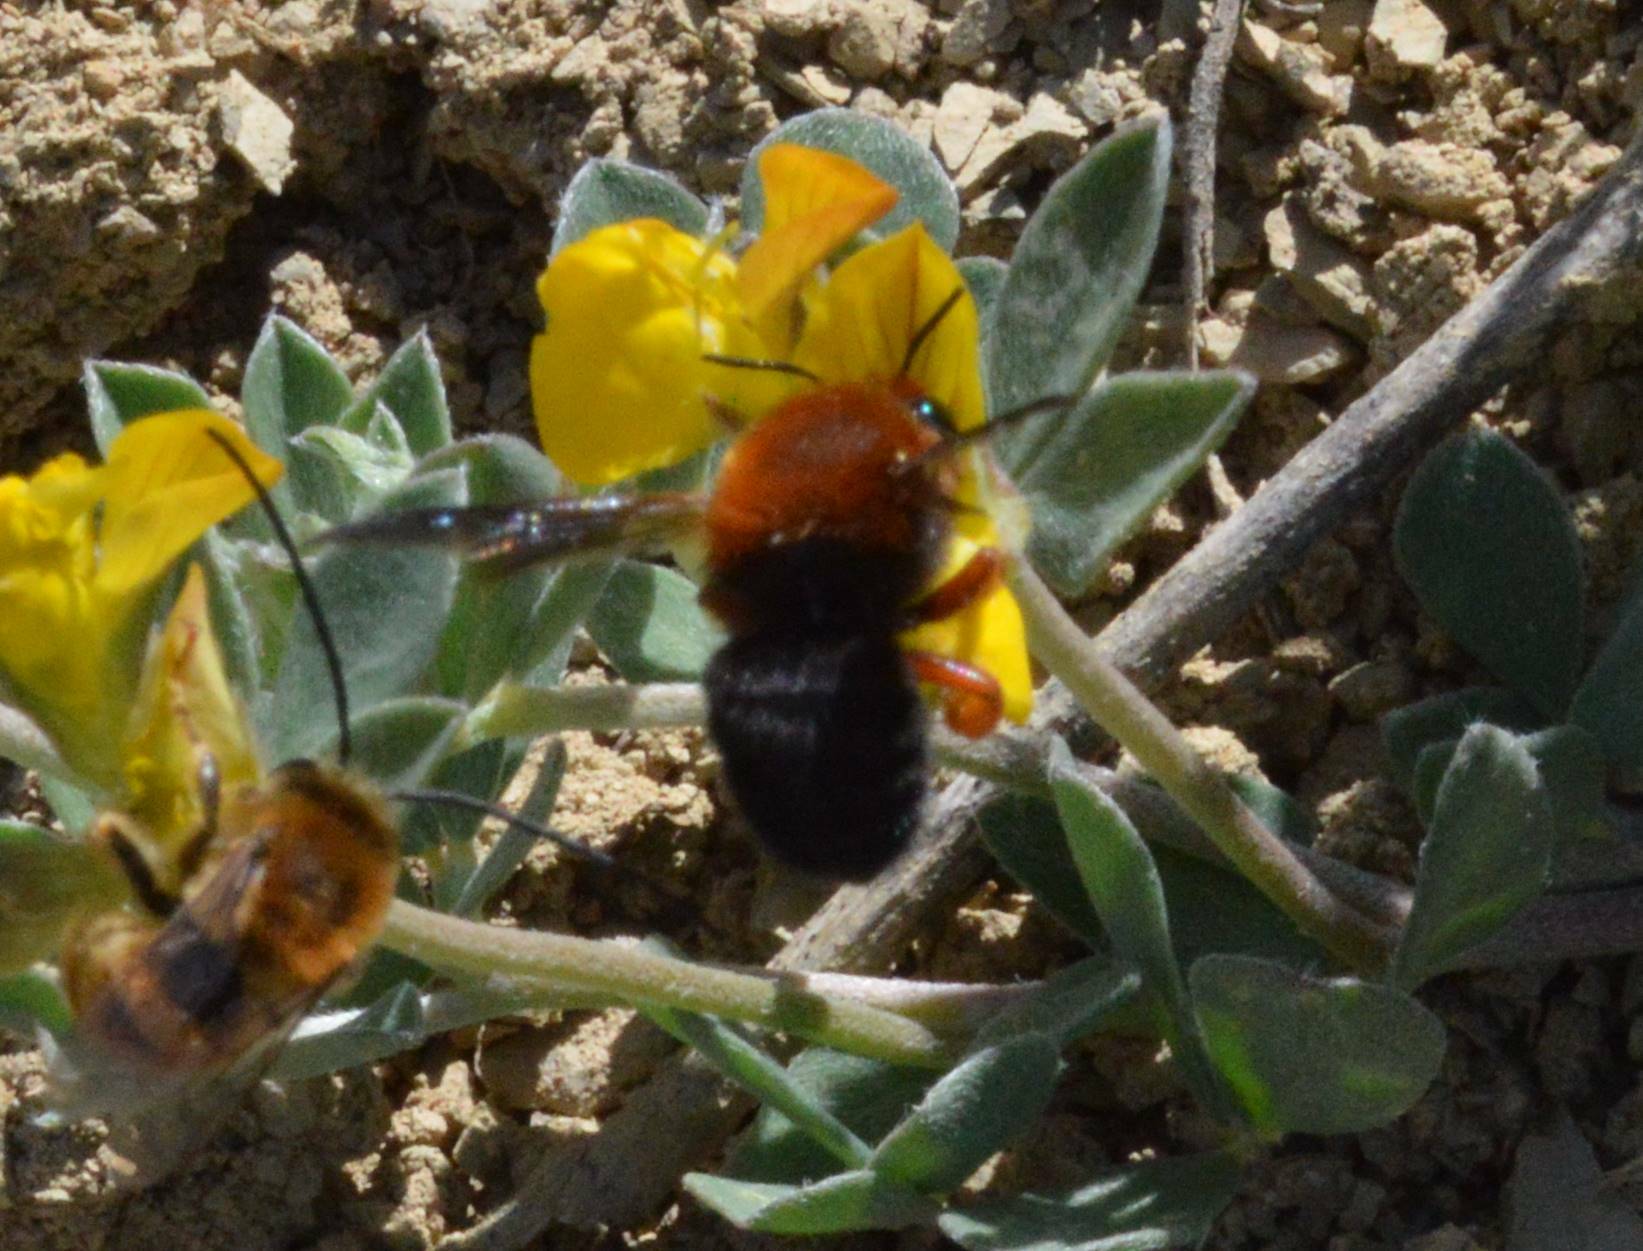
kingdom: Animalia
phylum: Arthropoda
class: Insecta
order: Hymenoptera
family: Megachilidae
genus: Megachile
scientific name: Megachile sicula
